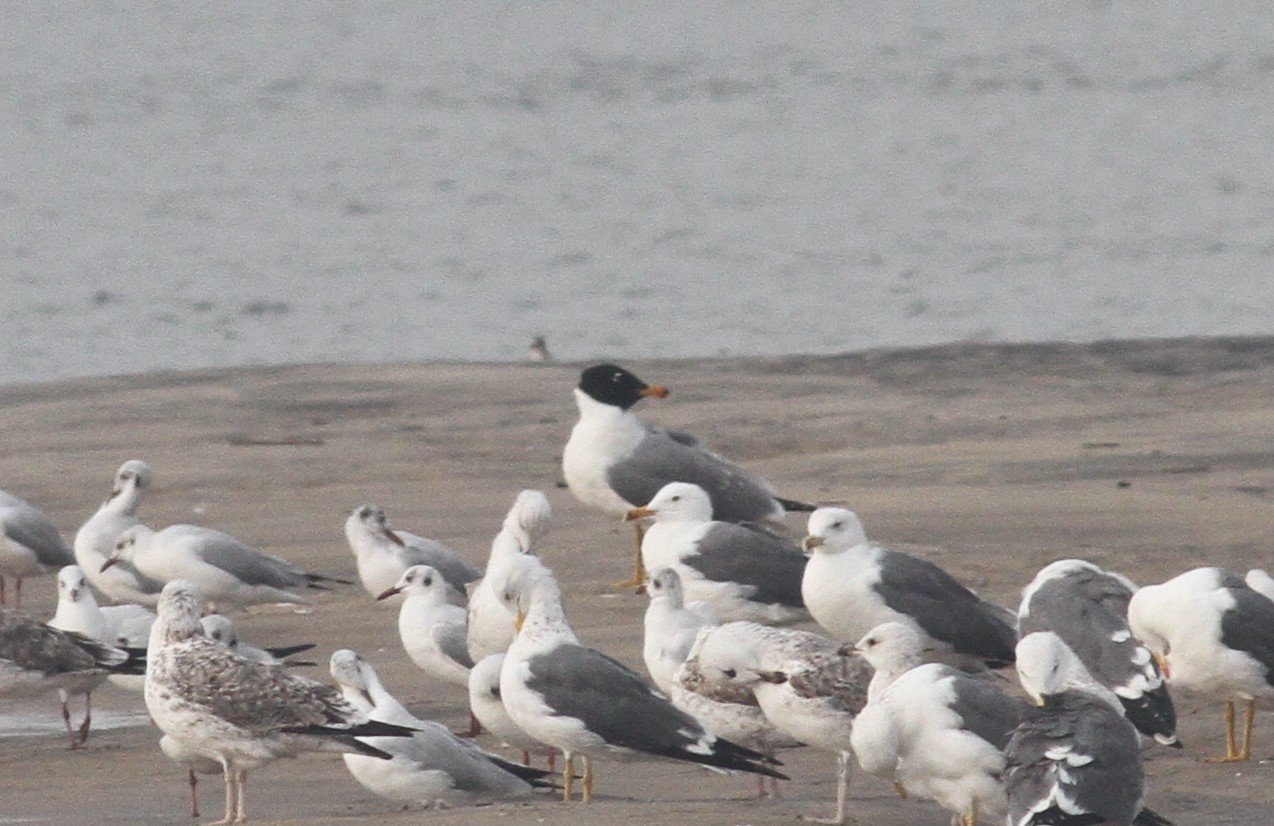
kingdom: Animalia
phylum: Chordata
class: Aves
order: Charadriiformes
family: Laridae
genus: Ichthyaetus
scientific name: Ichthyaetus ichthyaetus
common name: Pallas's gull
